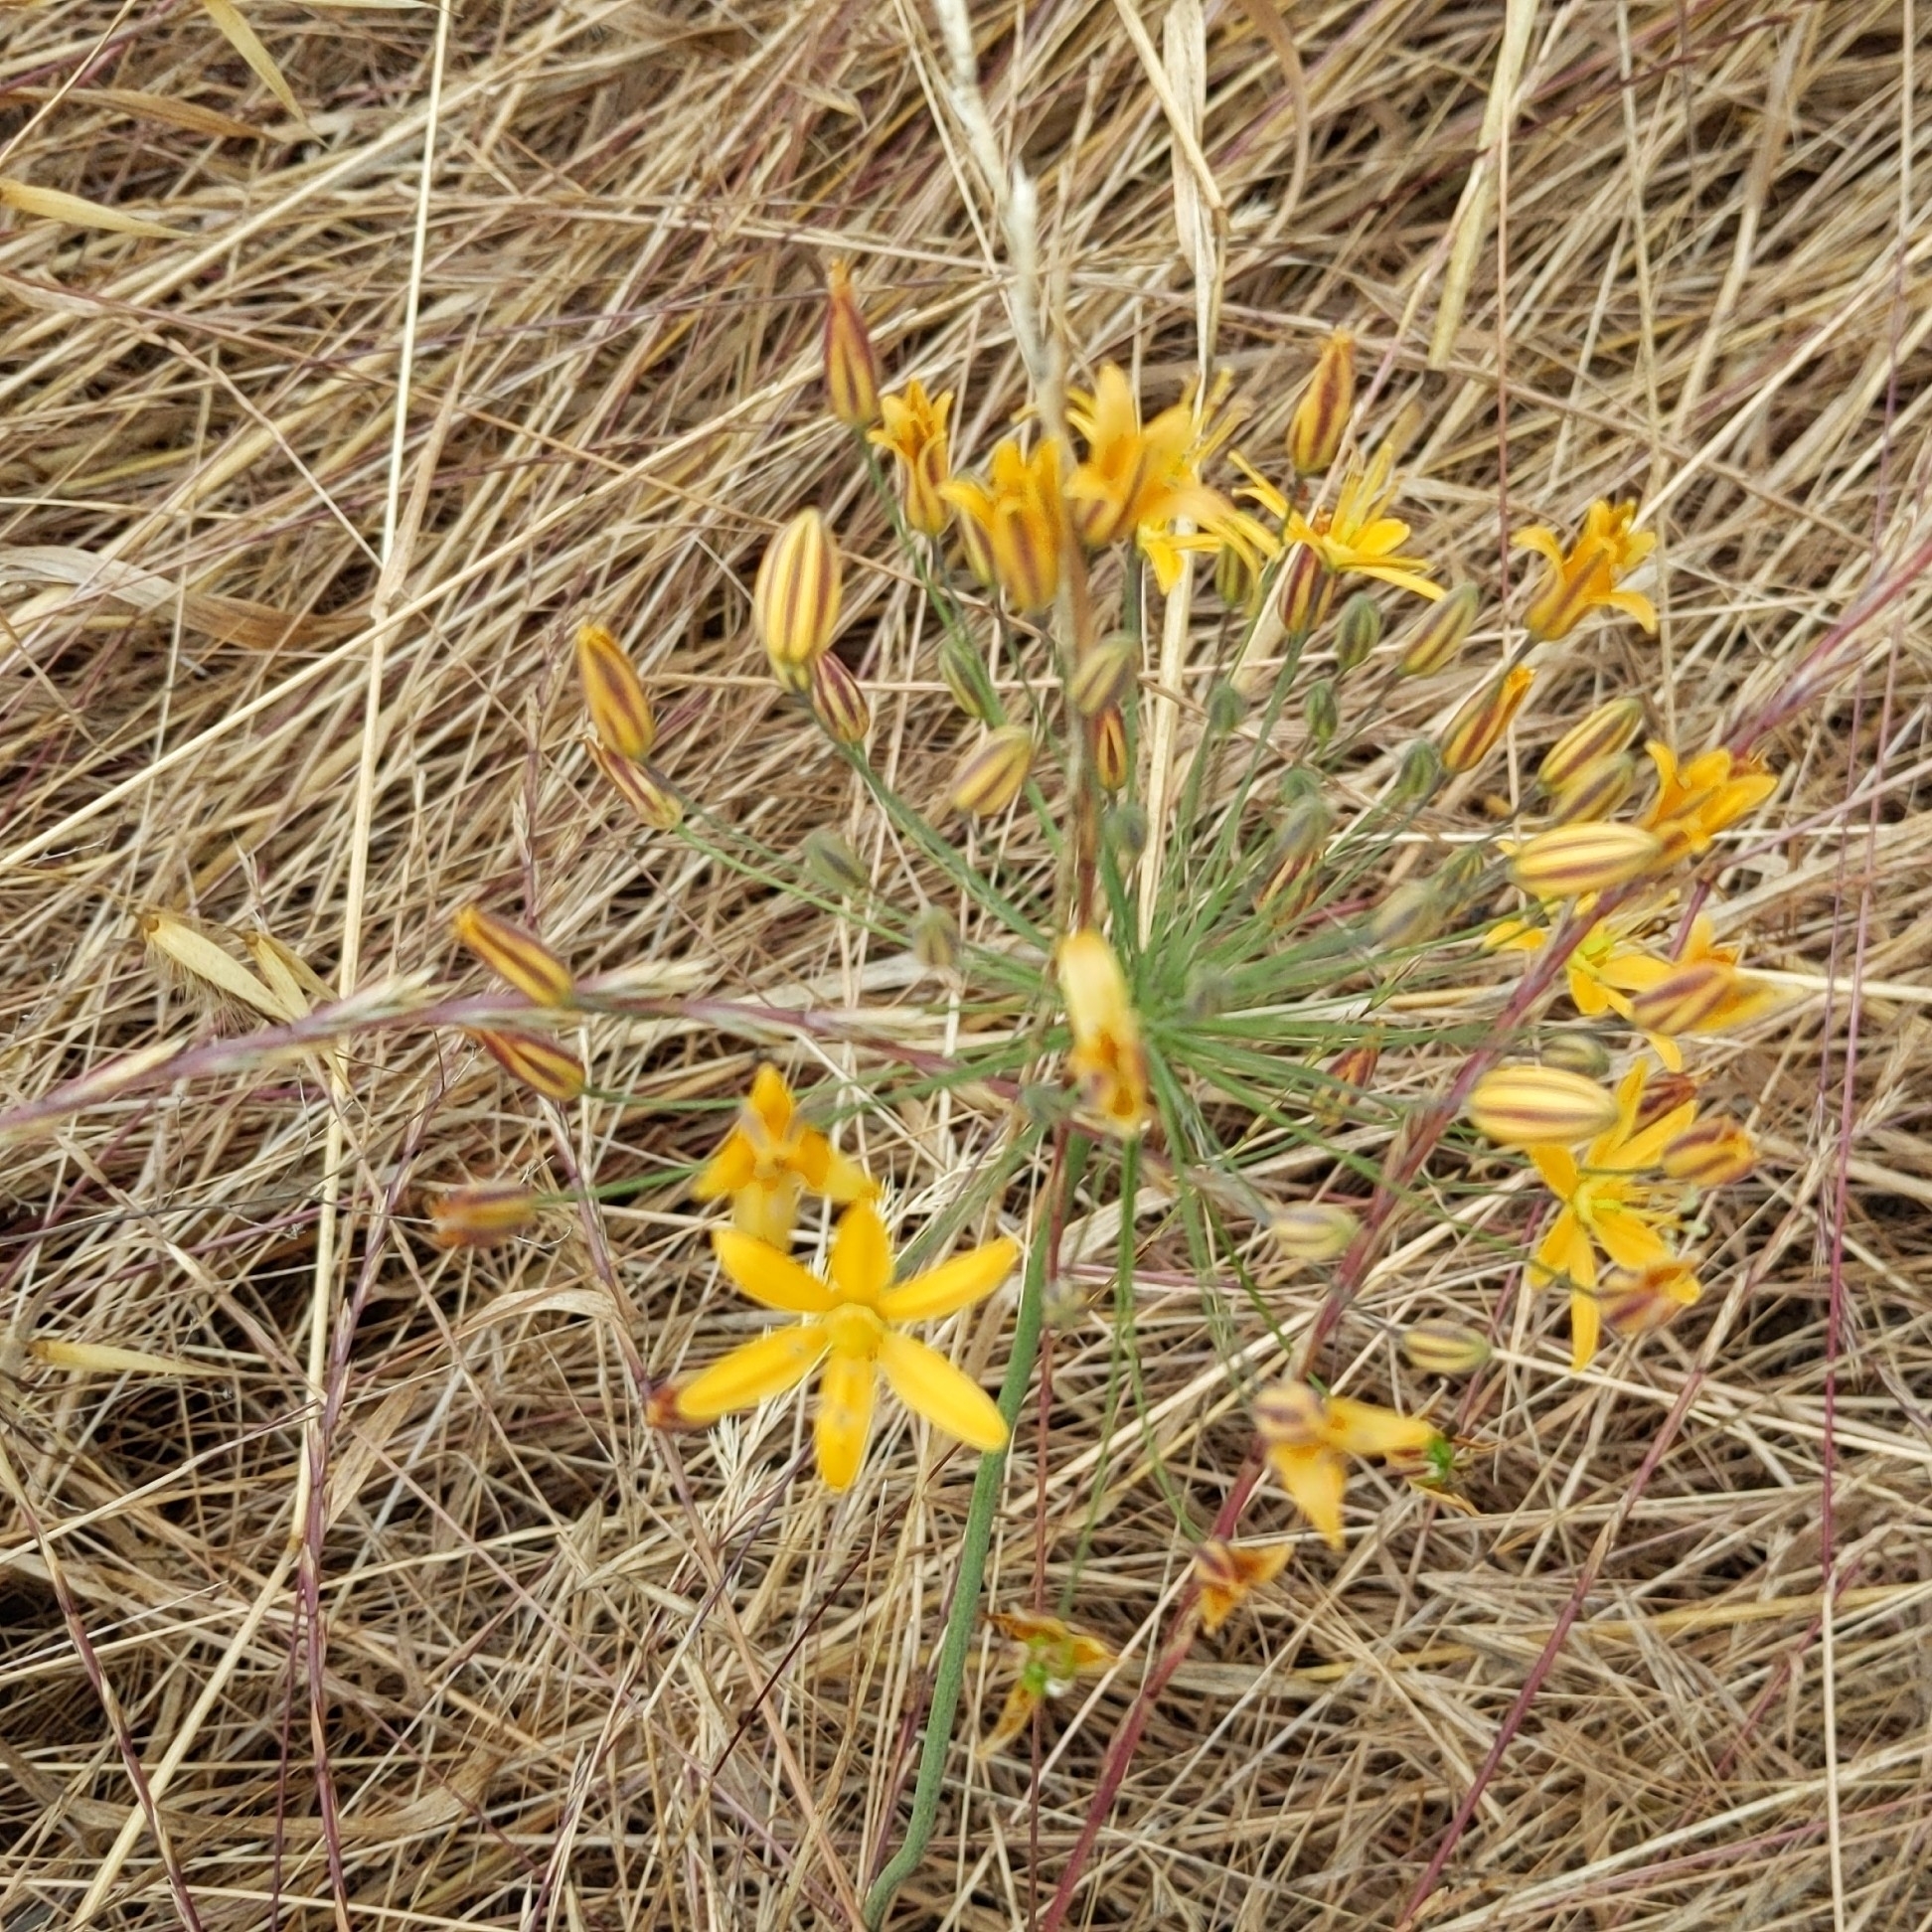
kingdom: Plantae
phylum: Tracheophyta
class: Liliopsida
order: Asparagales
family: Asparagaceae
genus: Bloomeria
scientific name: Bloomeria crocea
